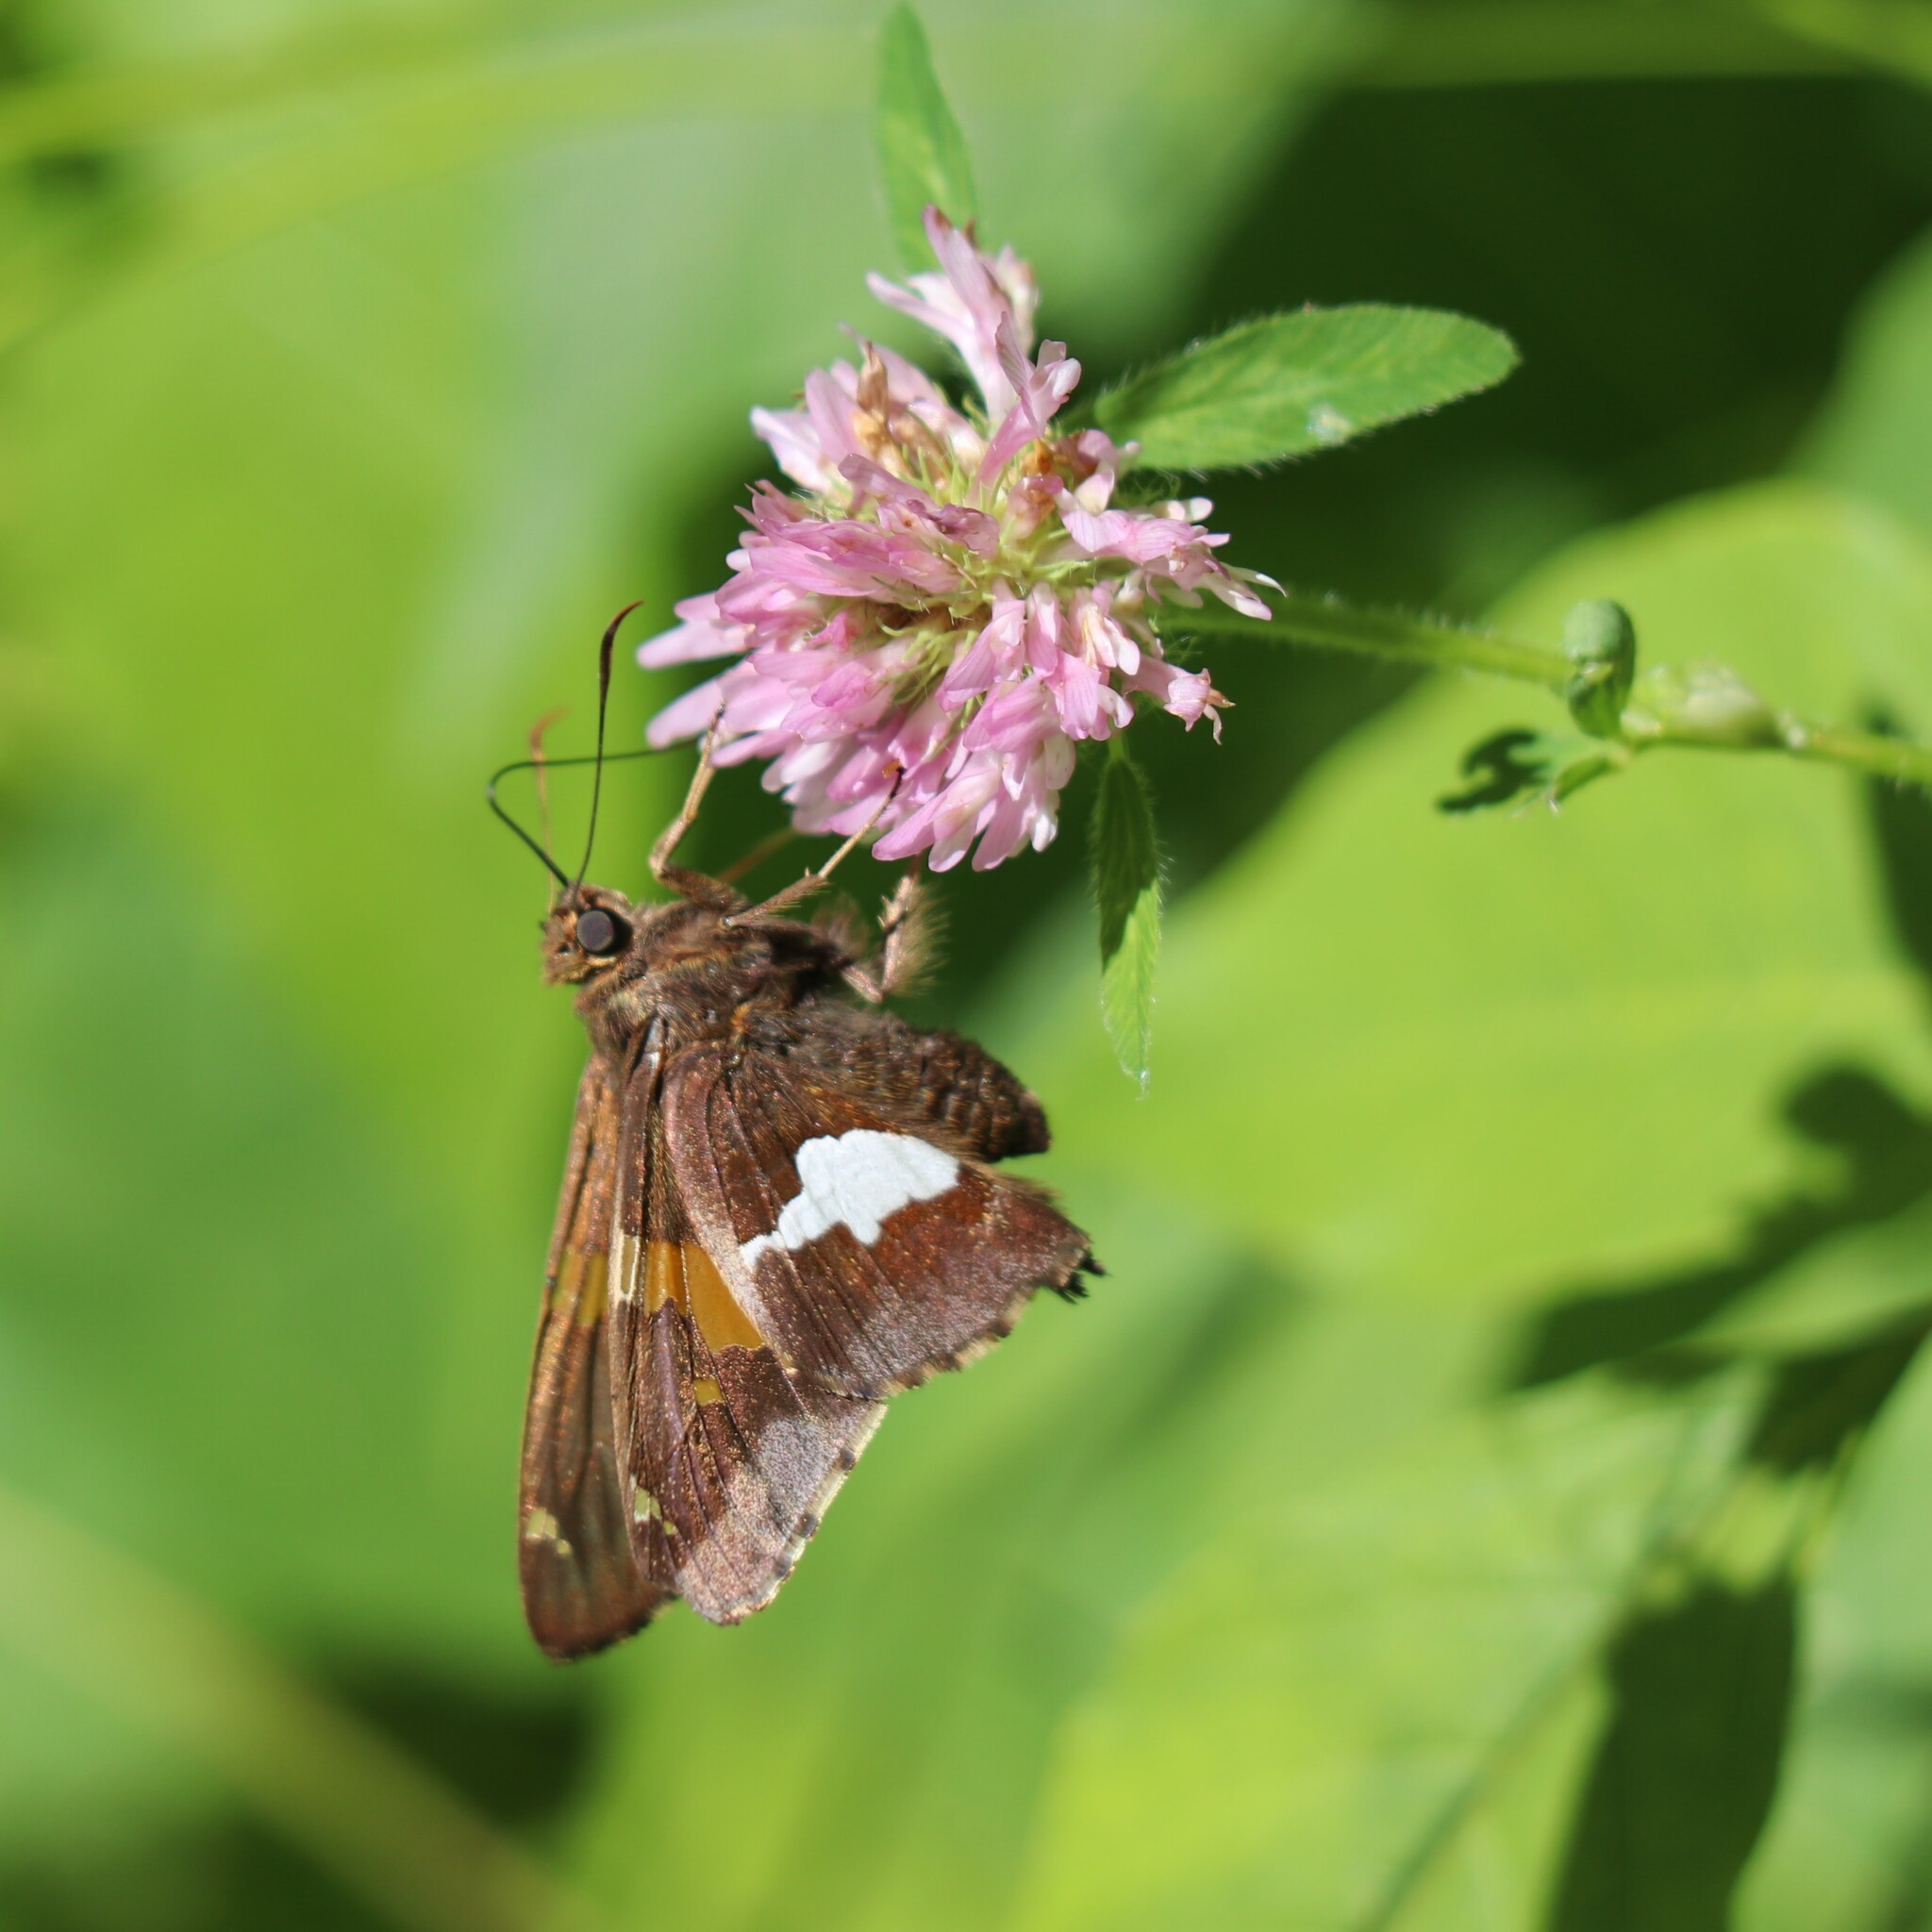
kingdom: Animalia
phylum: Arthropoda
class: Insecta
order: Lepidoptera
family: Hesperiidae
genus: Epargyreus
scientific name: Epargyreus clarus
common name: Silver-spotted skipper
